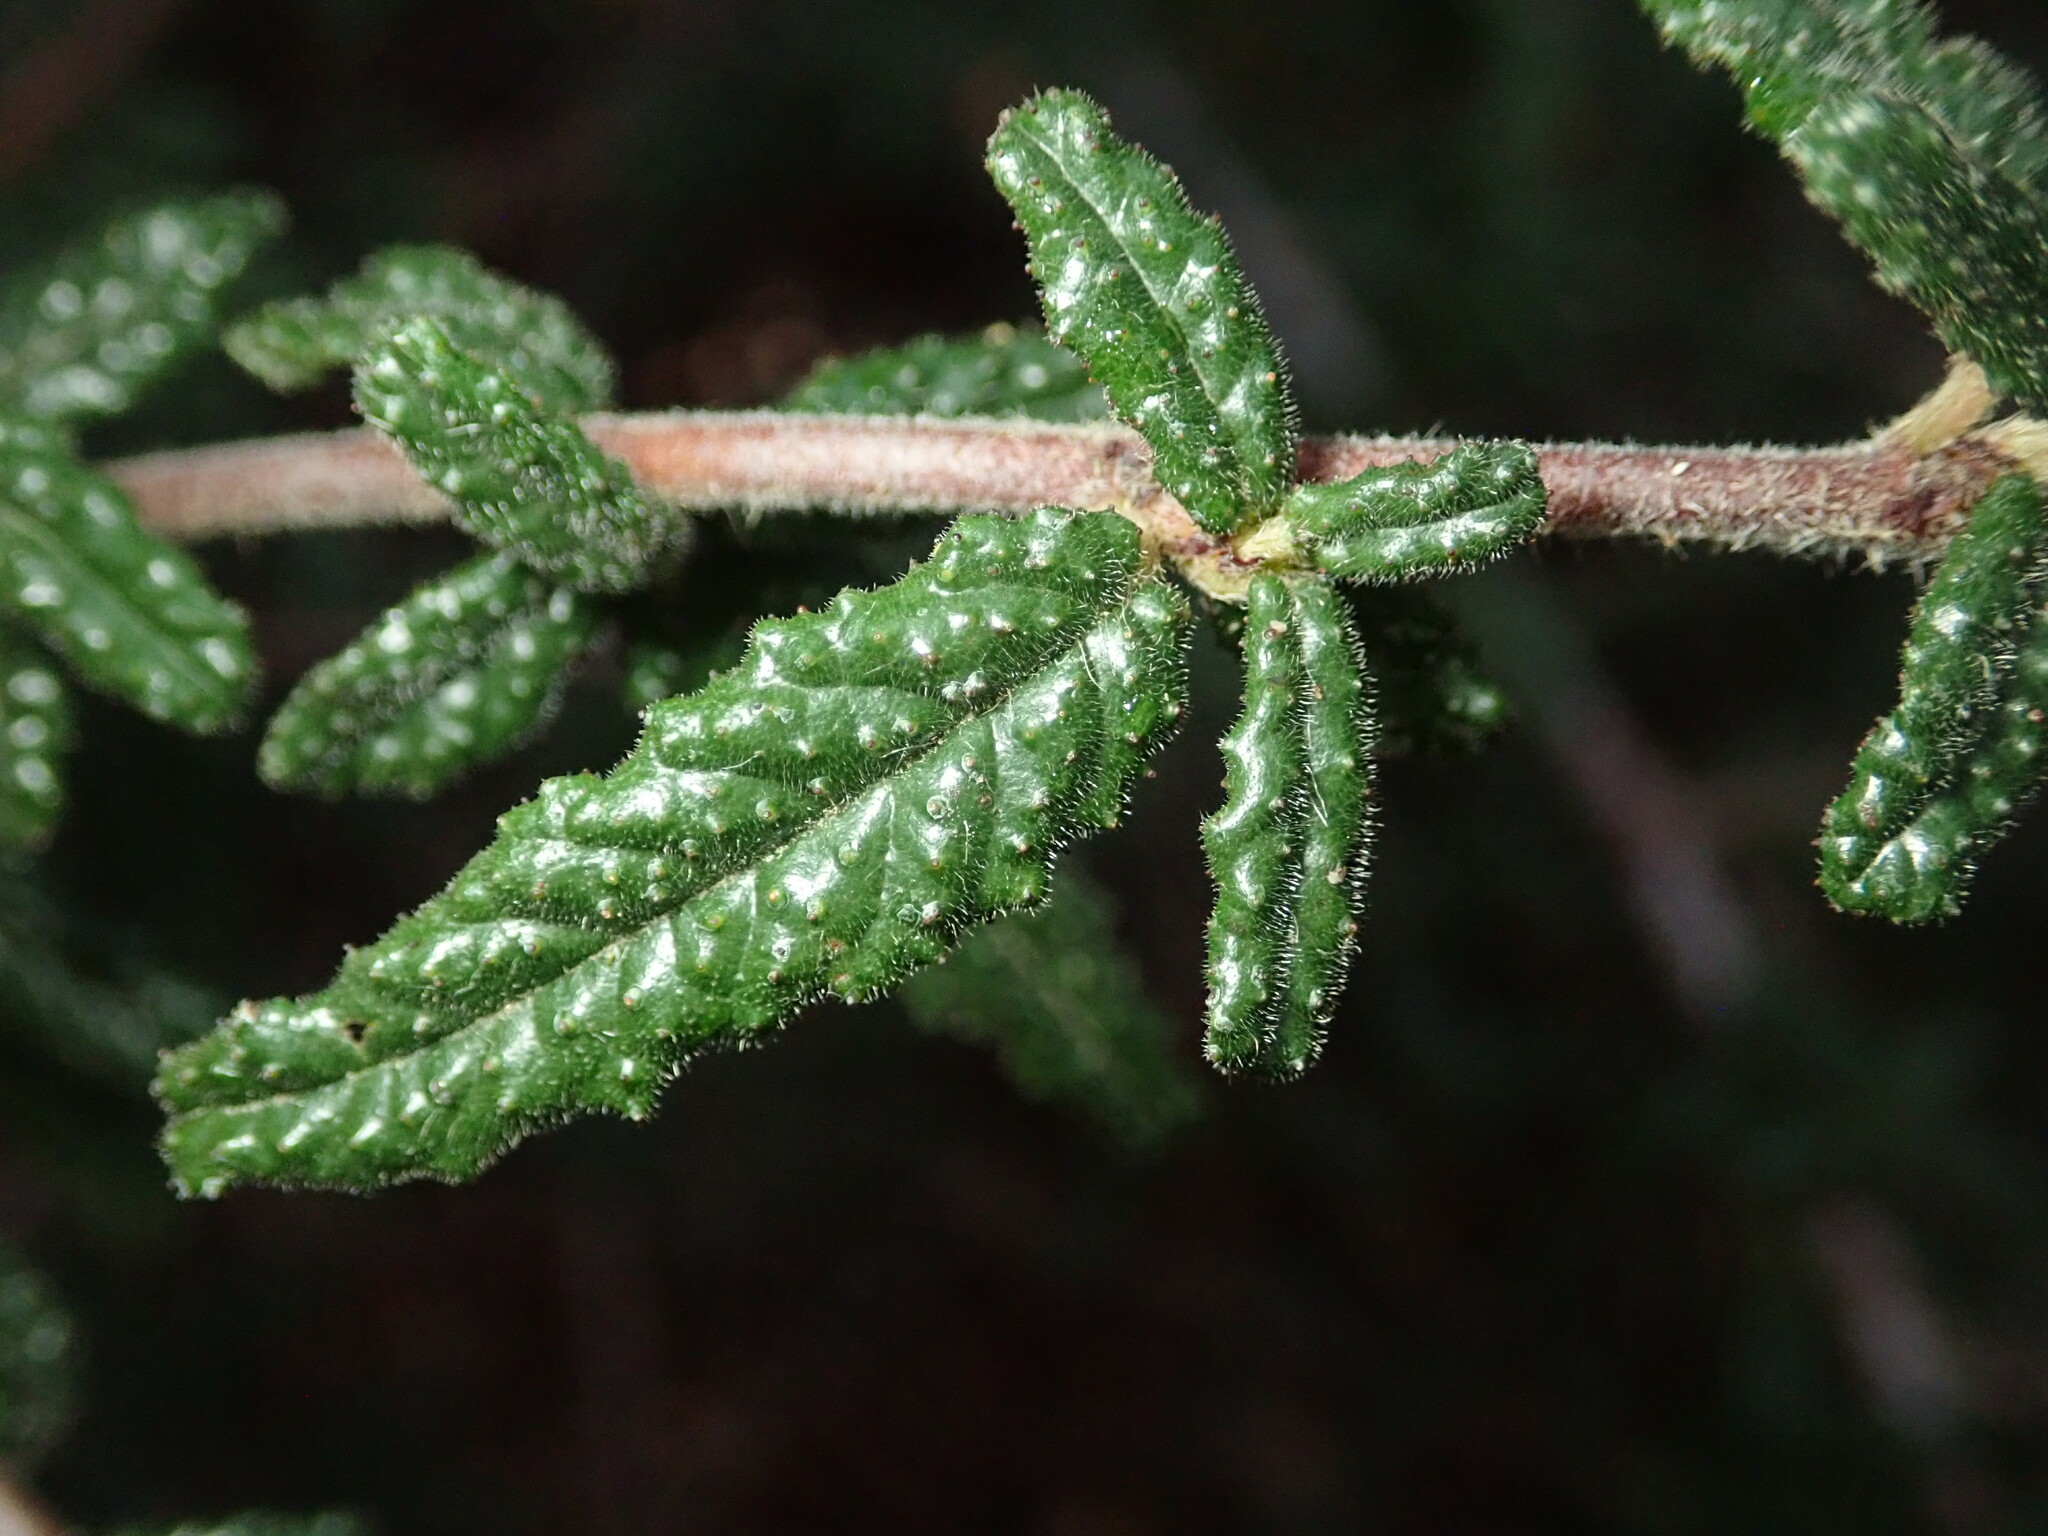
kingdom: Plantae
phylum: Tracheophyta
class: Magnoliopsida
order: Rosales
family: Rhamnaceae
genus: Ceanothus
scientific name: Ceanothus papillosus
